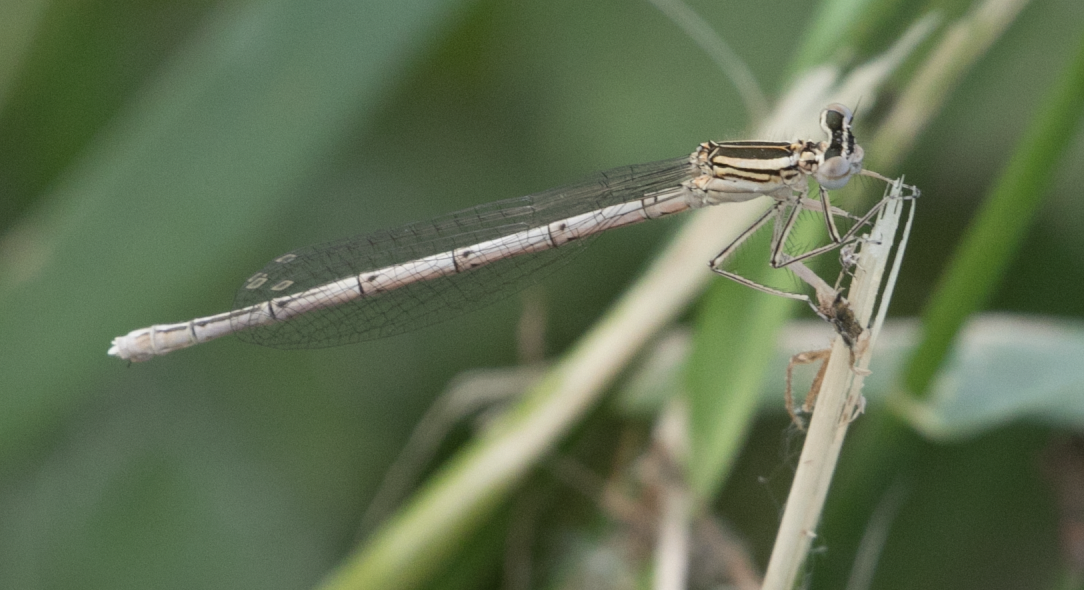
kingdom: Animalia
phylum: Arthropoda
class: Insecta
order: Odonata
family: Platycnemididae
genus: Platycnemis
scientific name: Platycnemis pennipes
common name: White-legged damselfly
